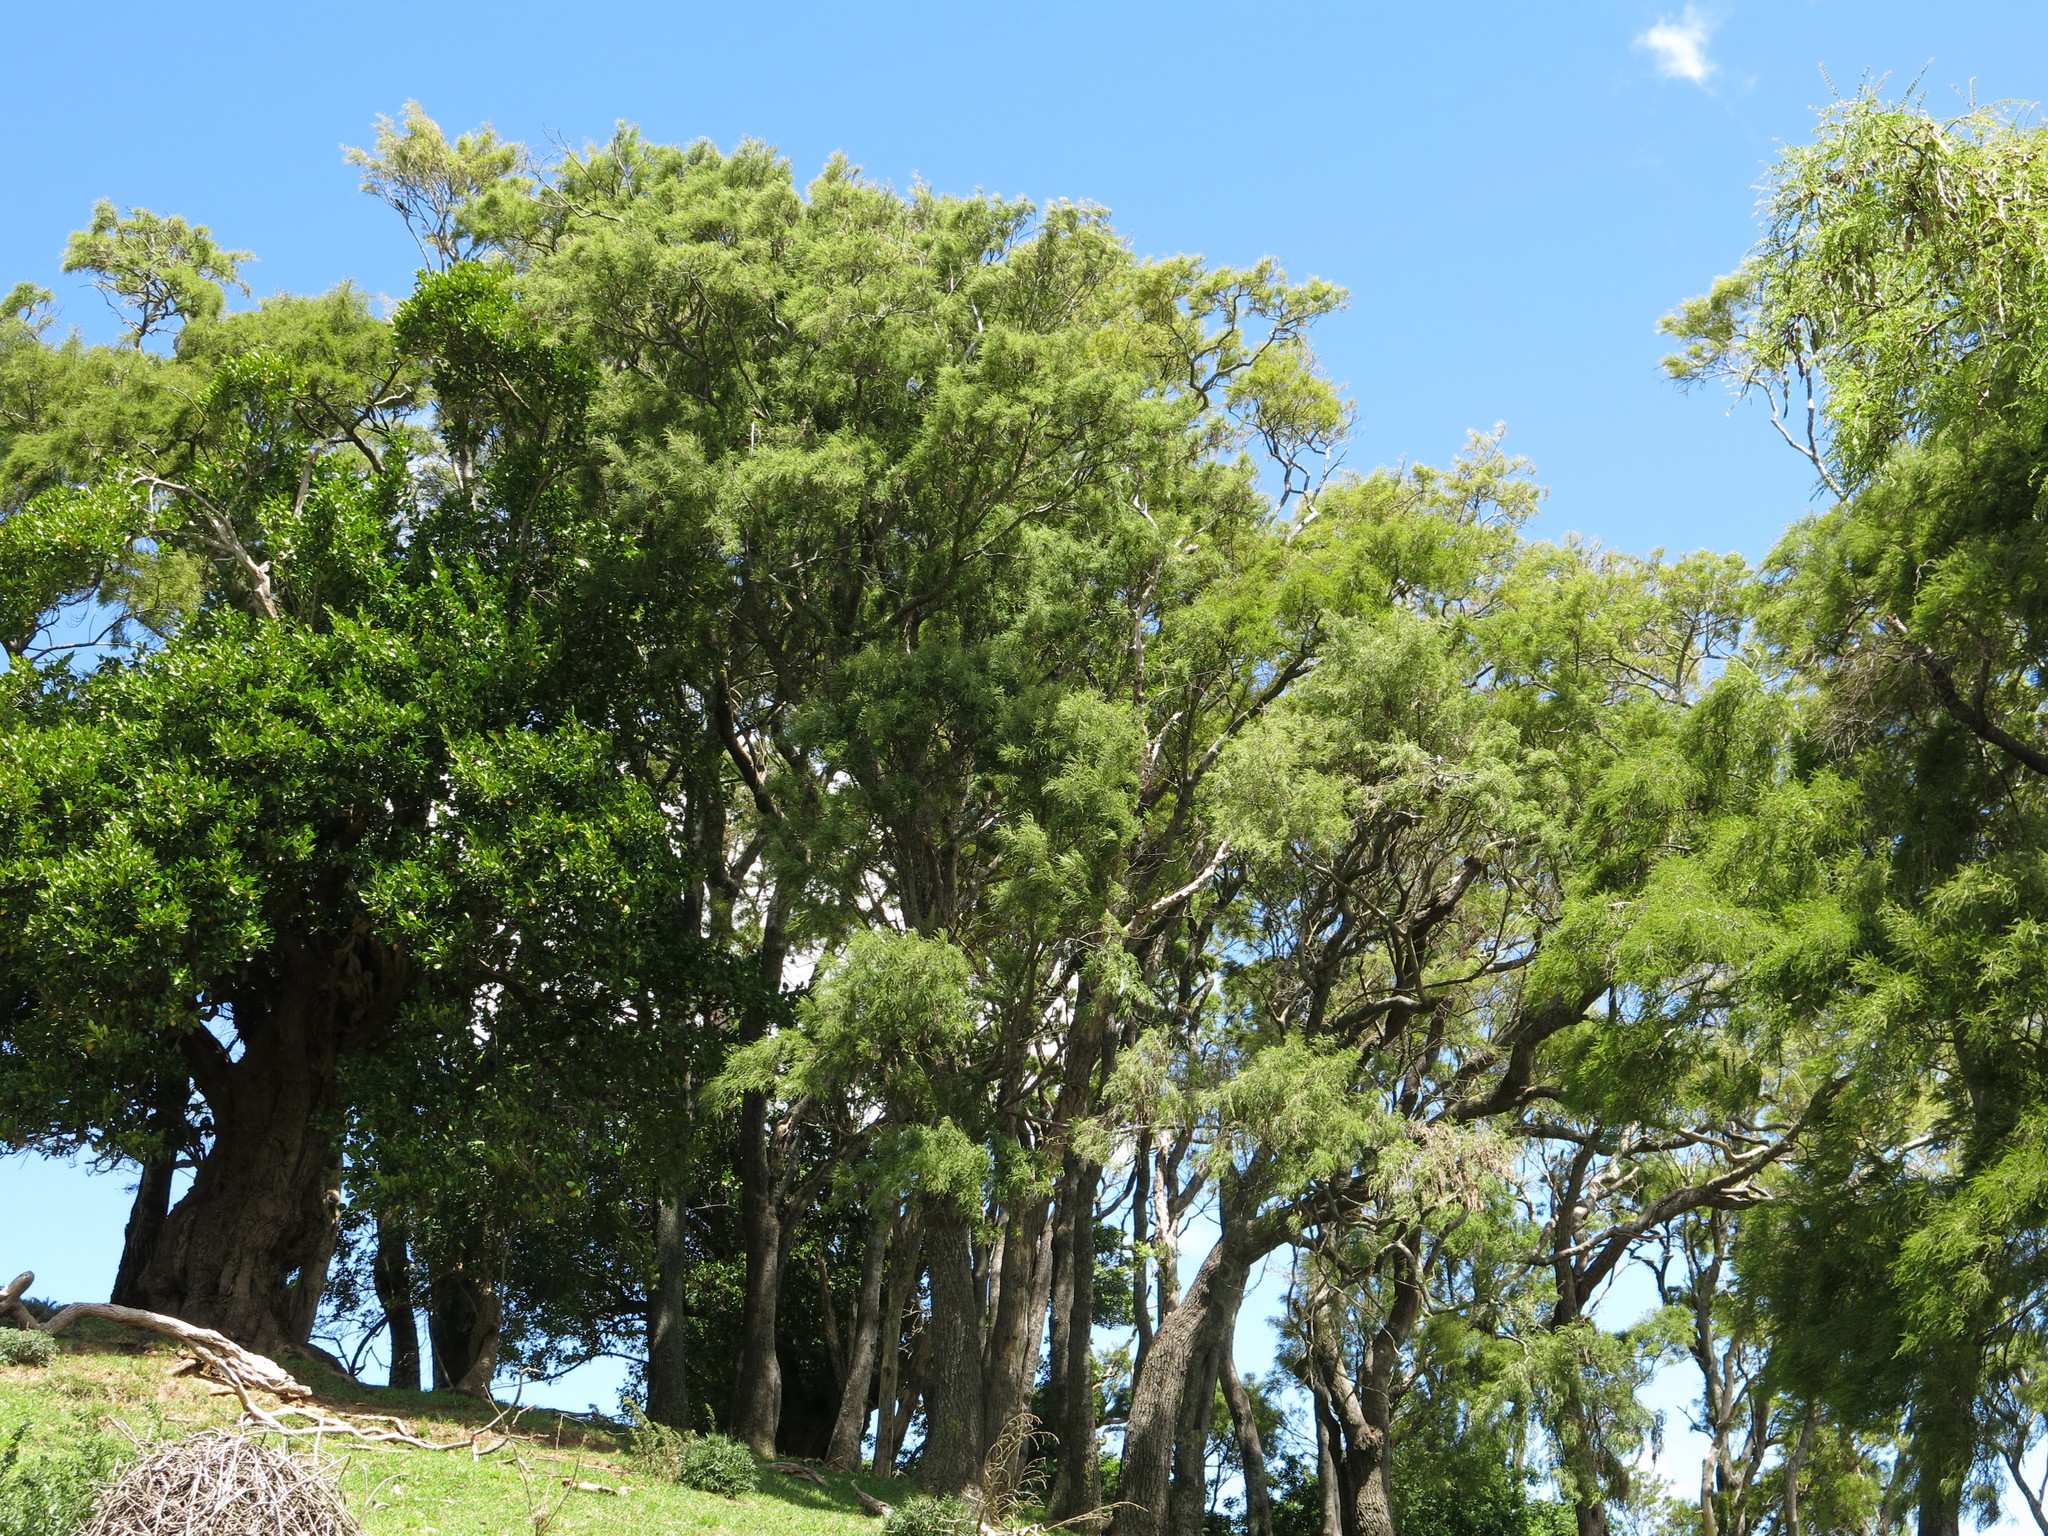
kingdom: Plantae
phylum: Tracheophyta
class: Magnoliopsida
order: Fabales
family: Fabaceae
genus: Sophora
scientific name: Sophora microphylla
